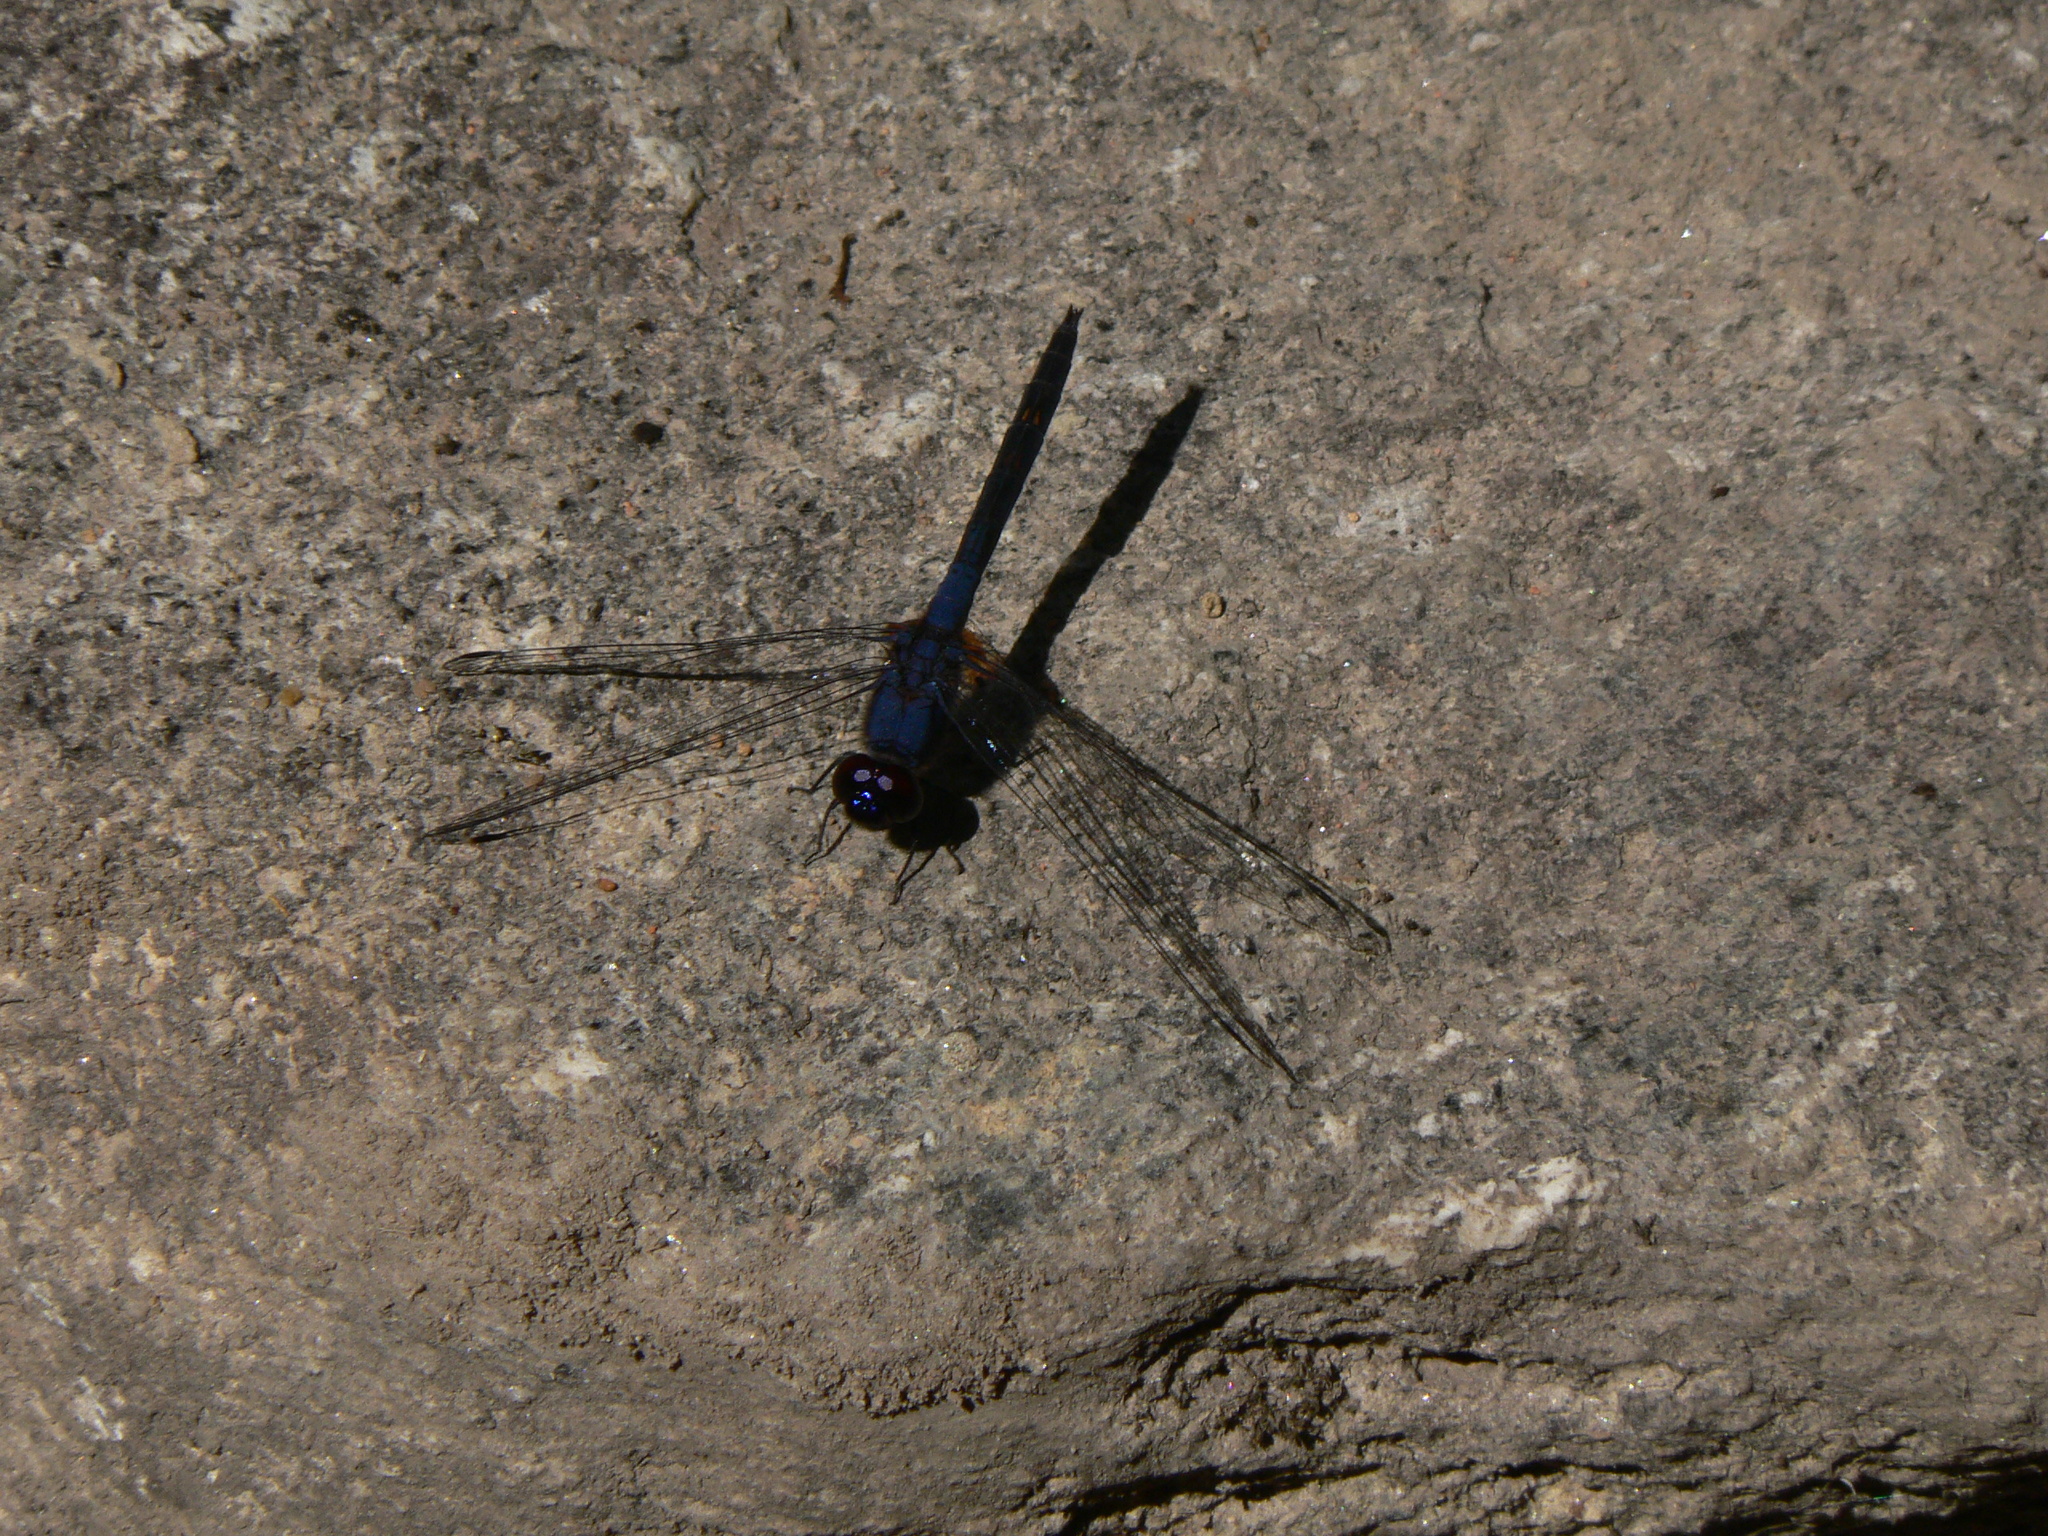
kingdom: Animalia
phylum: Arthropoda
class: Insecta
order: Odonata
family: Libellulidae
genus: Trithemis
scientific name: Trithemis festiva
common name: Indigo dropwing
